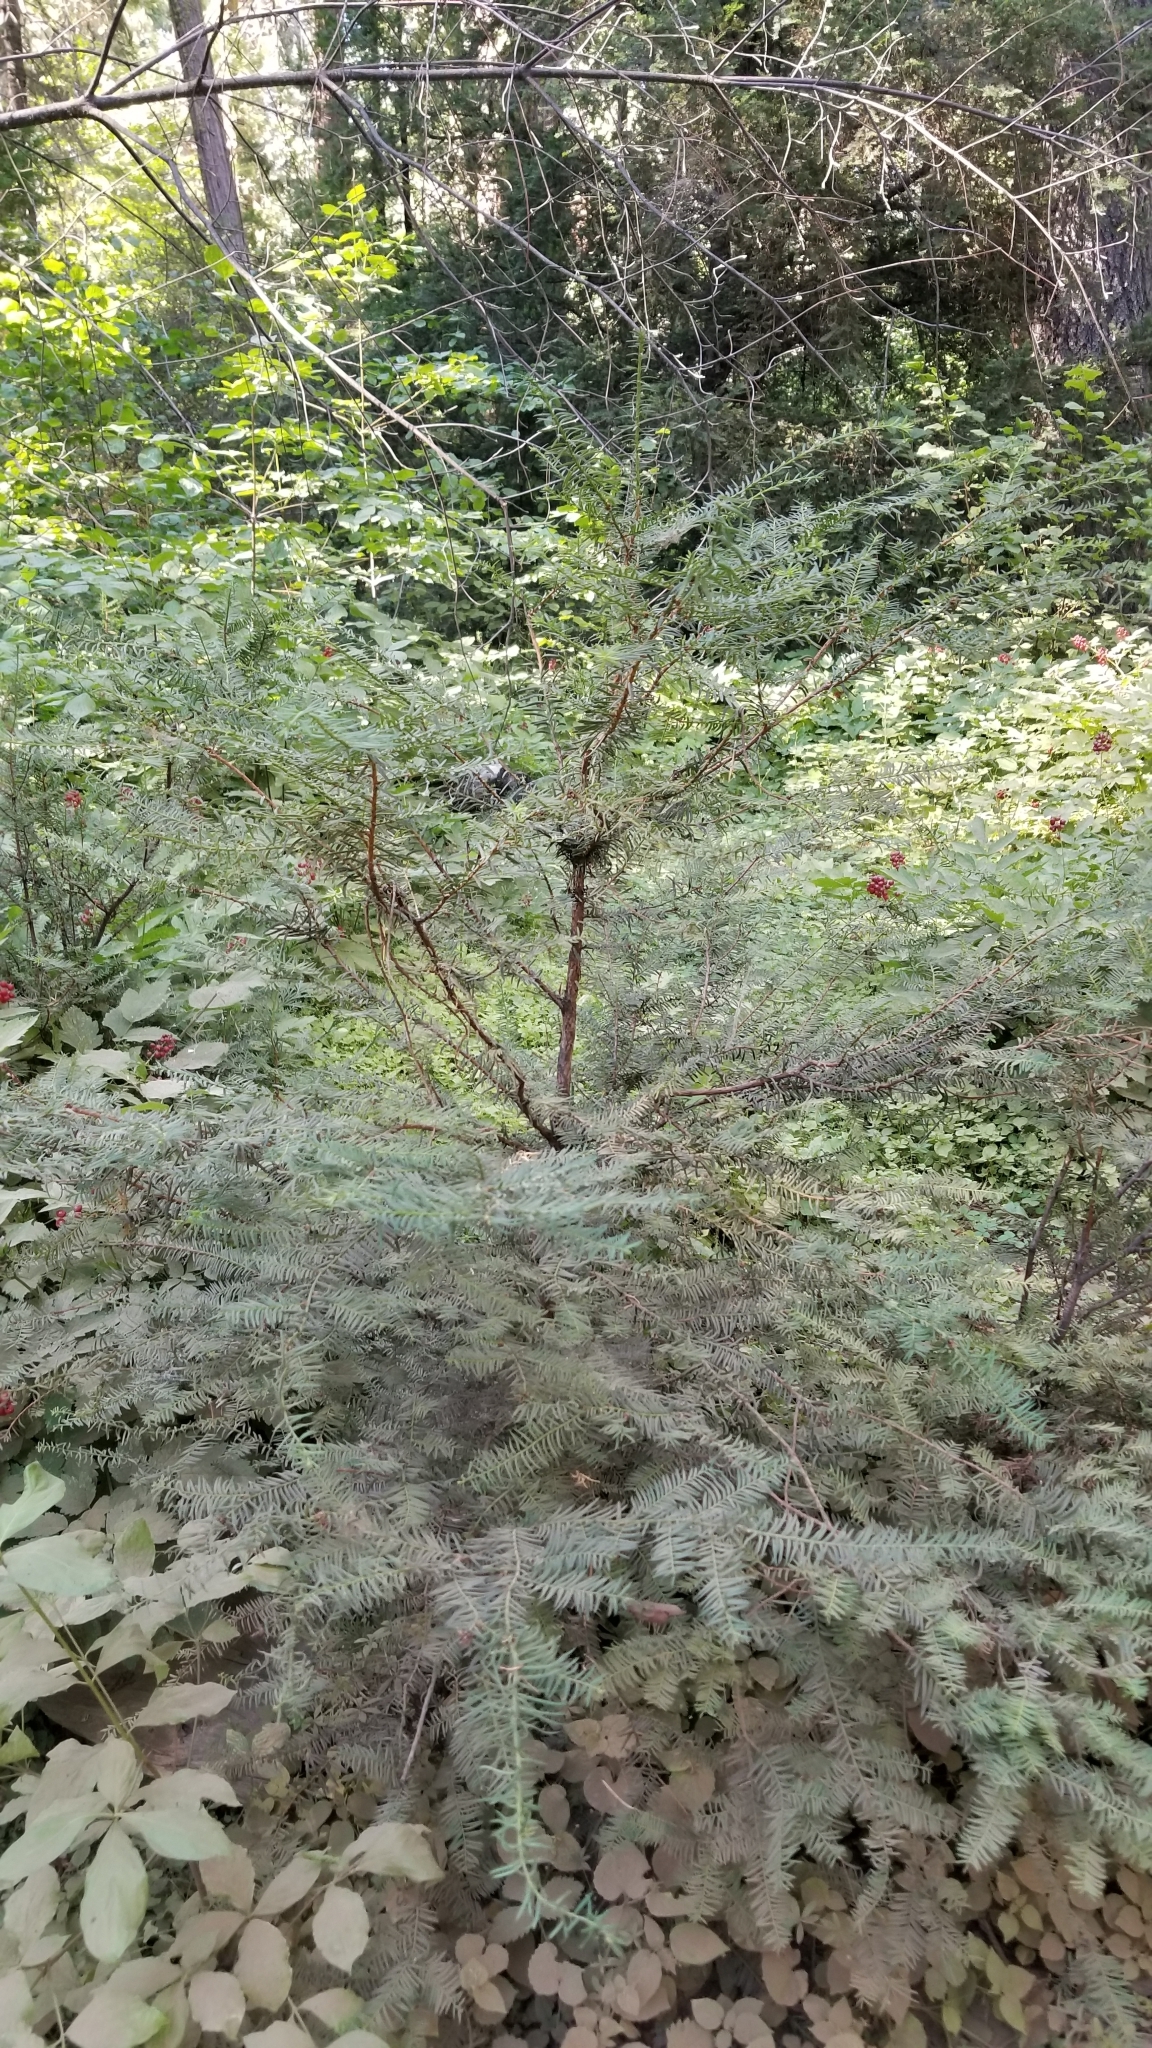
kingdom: Plantae
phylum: Tracheophyta
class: Pinopsida
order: Pinales
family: Taxaceae
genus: Taxus
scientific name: Taxus brevifolia
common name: Pacific yew
